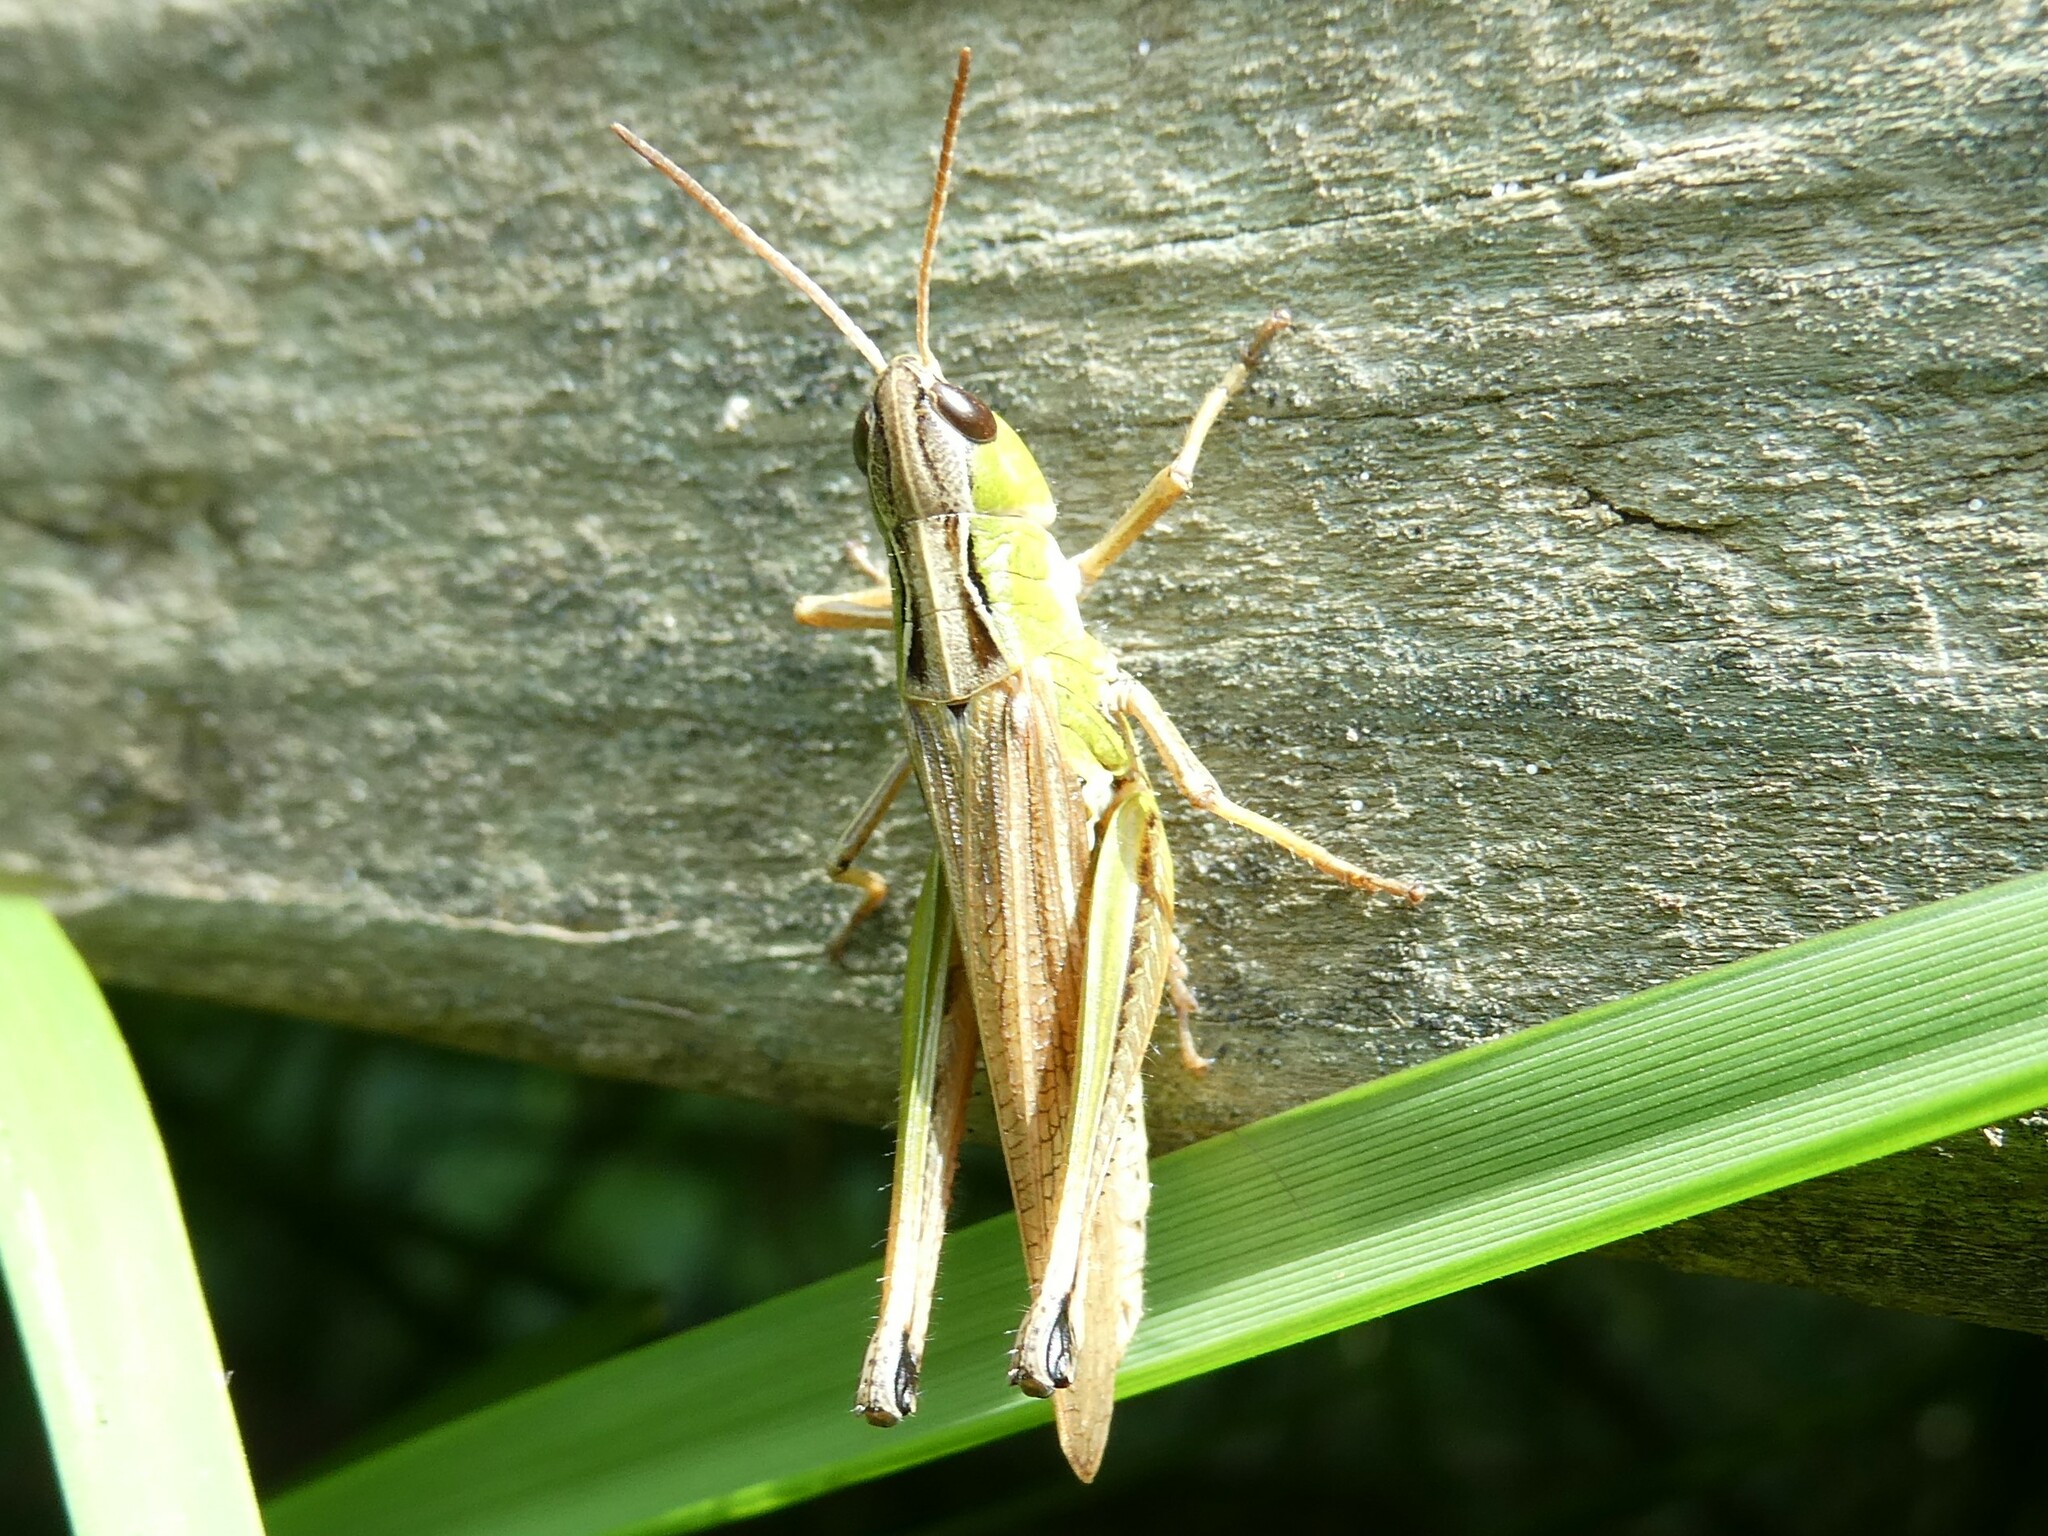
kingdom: Animalia
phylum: Arthropoda
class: Insecta
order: Orthoptera
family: Acrididae
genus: Pseudochorthippus
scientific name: Pseudochorthippus curtipennis
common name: Marsh meadow grasshopper
